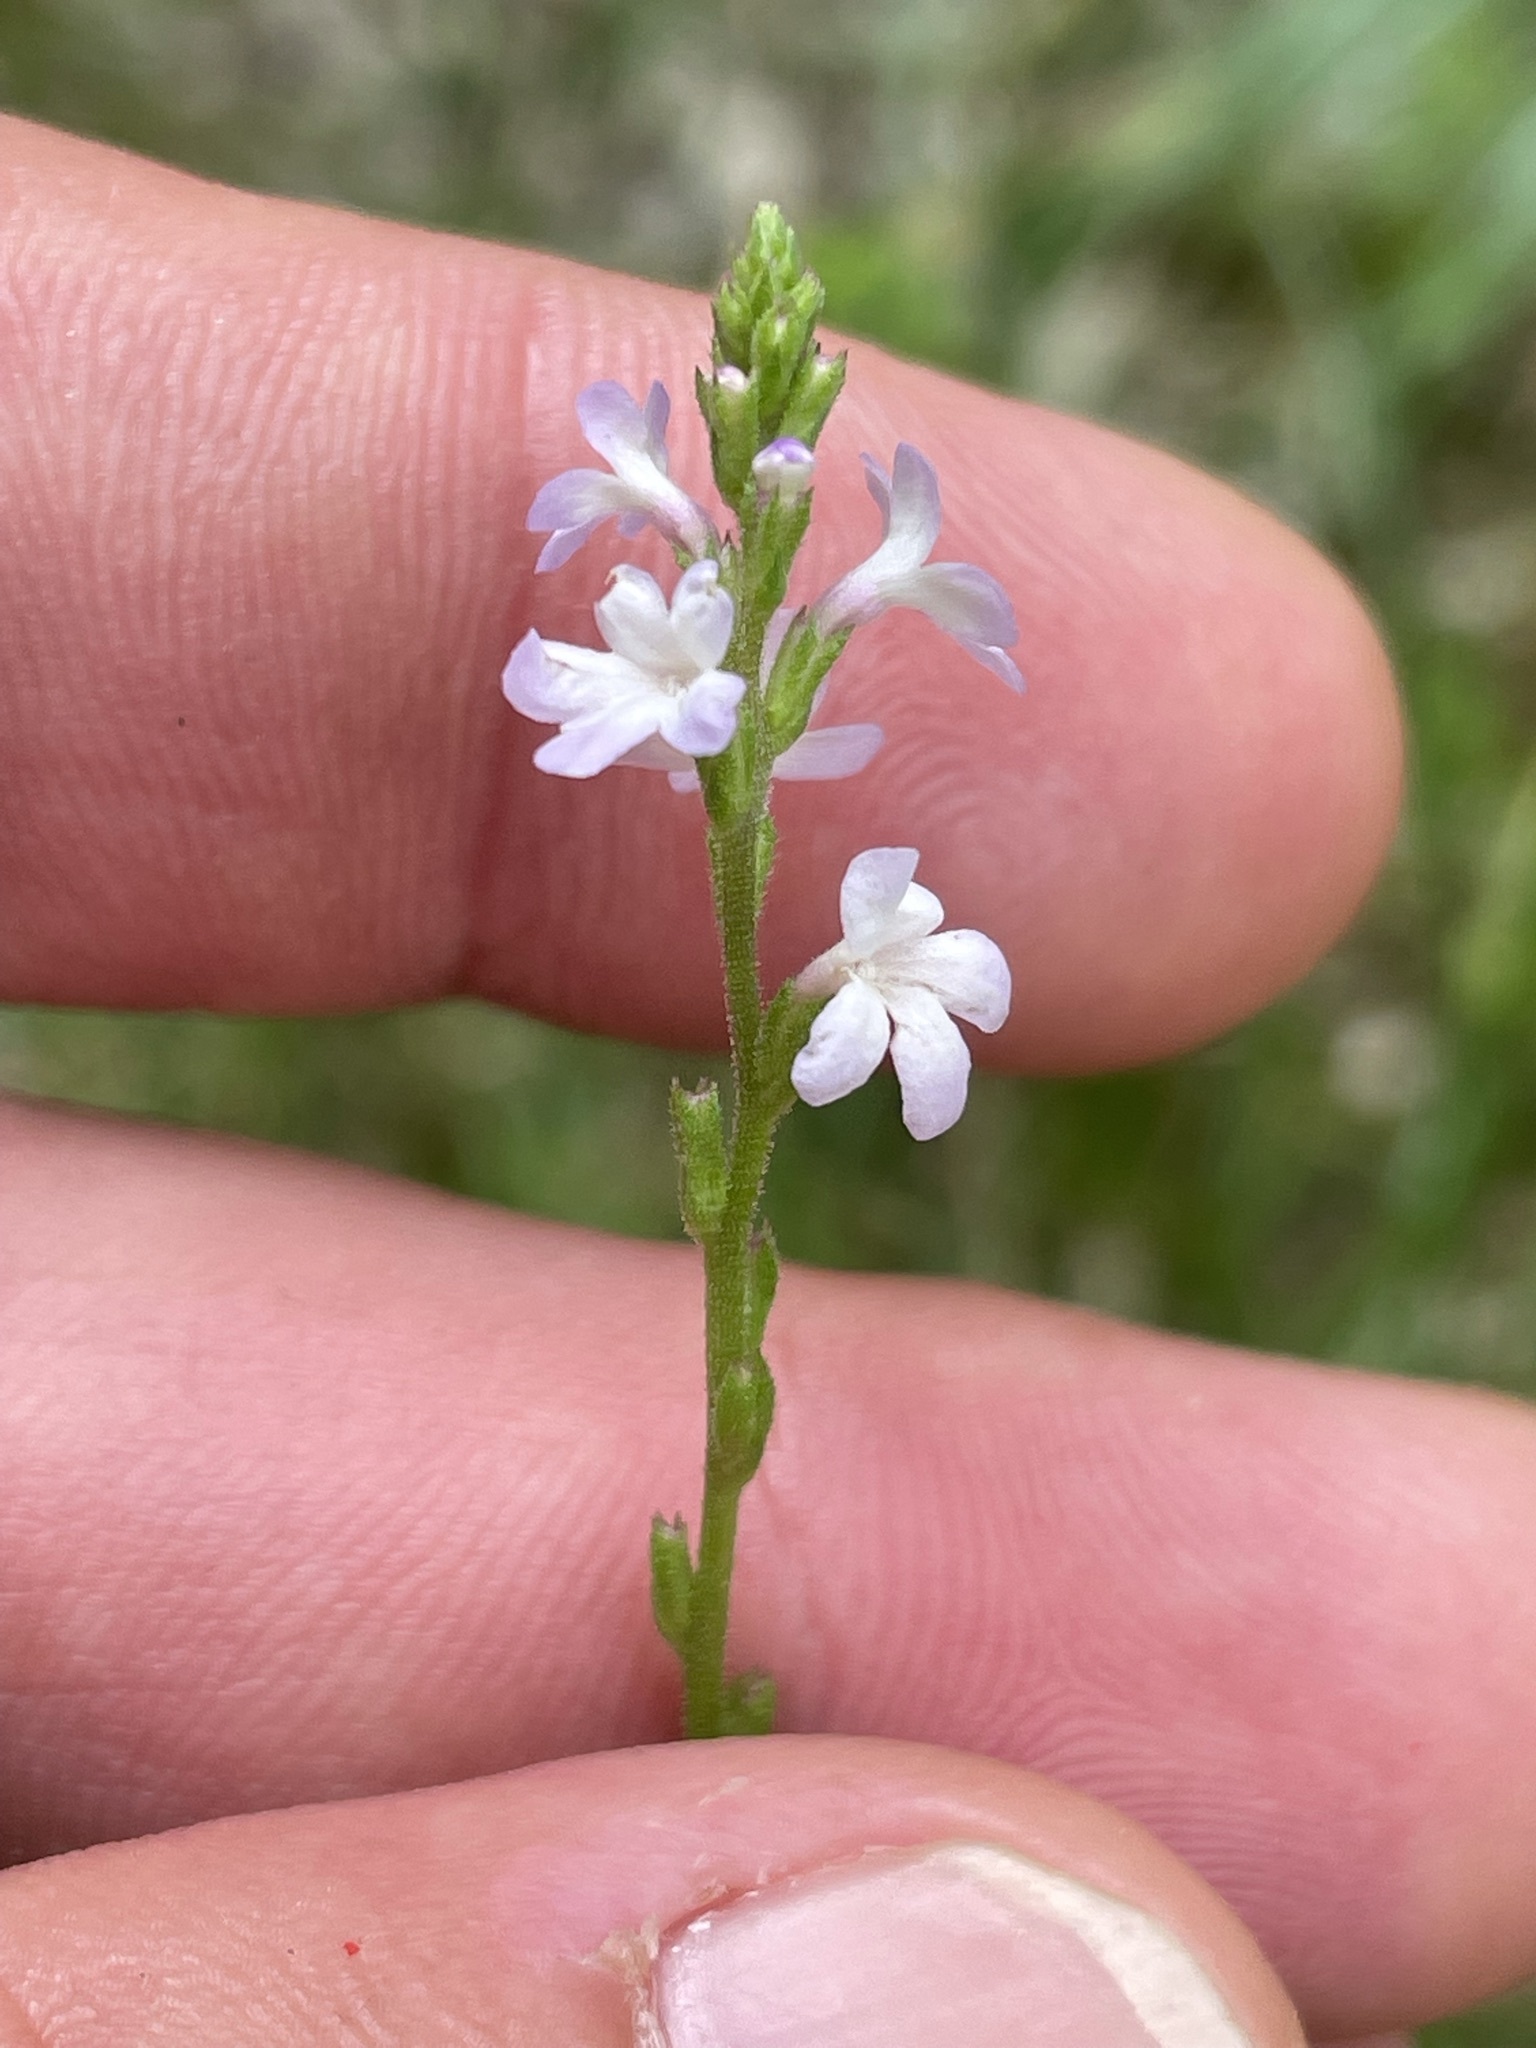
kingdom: Plantae
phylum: Tracheophyta
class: Magnoliopsida
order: Lamiales
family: Verbenaceae
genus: Verbena
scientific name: Verbena officinalis
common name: Vervain
